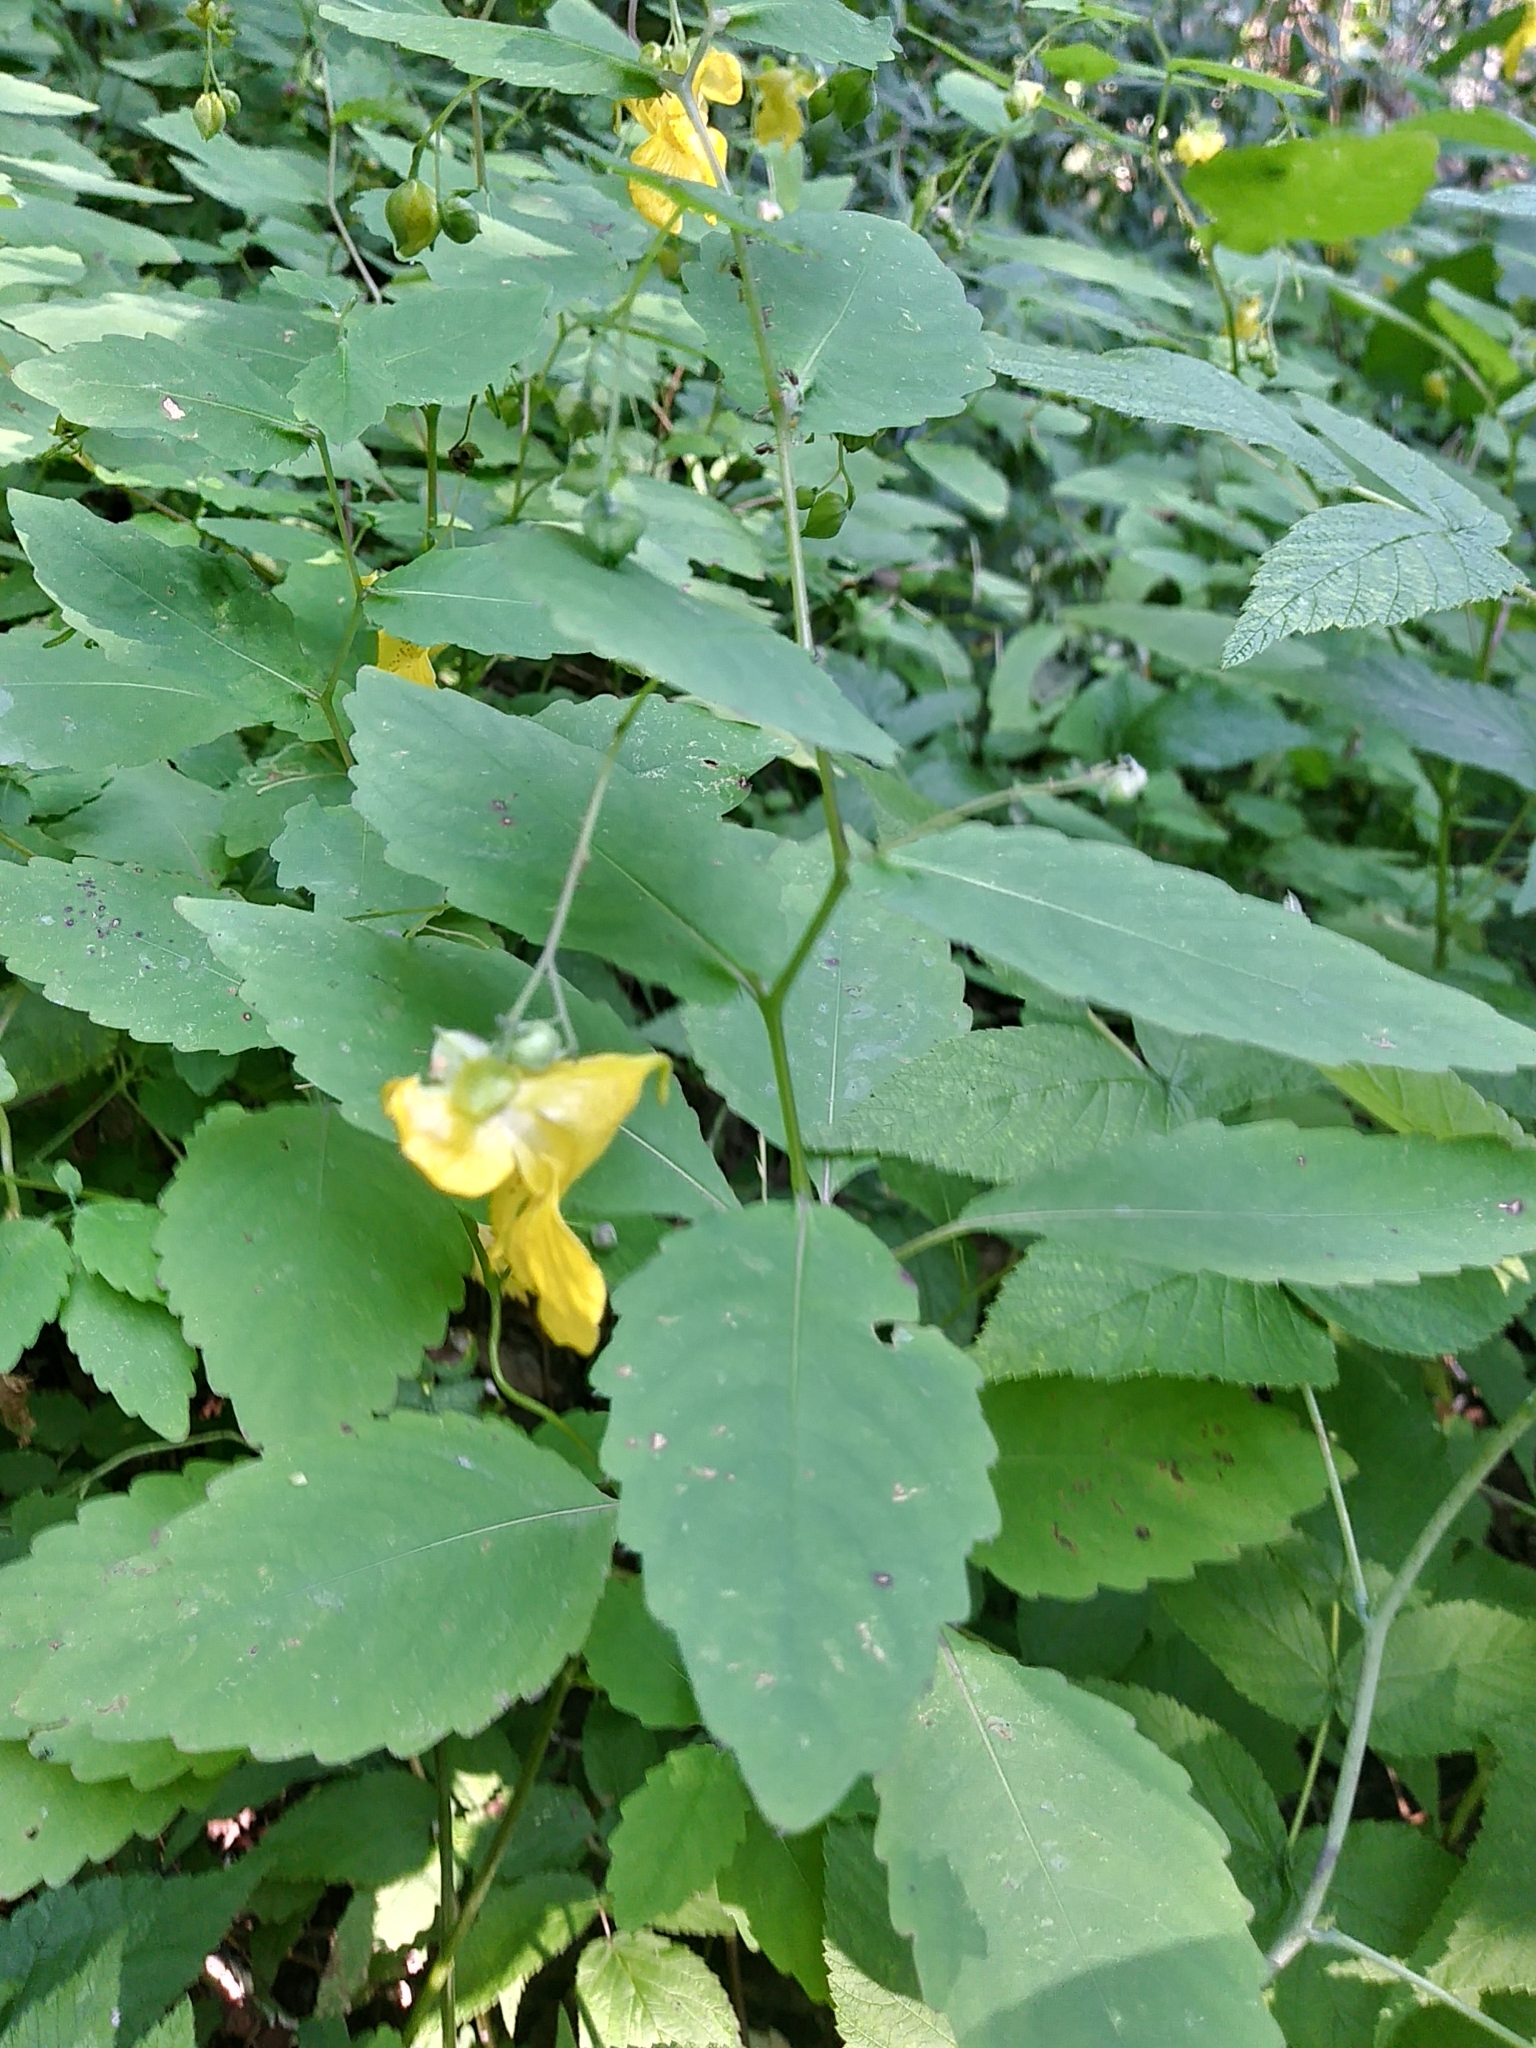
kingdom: Plantae
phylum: Tracheophyta
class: Magnoliopsida
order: Ericales
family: Balsaminaceae
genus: Impatiens
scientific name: Impatiens pallida
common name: Pale snapweed
